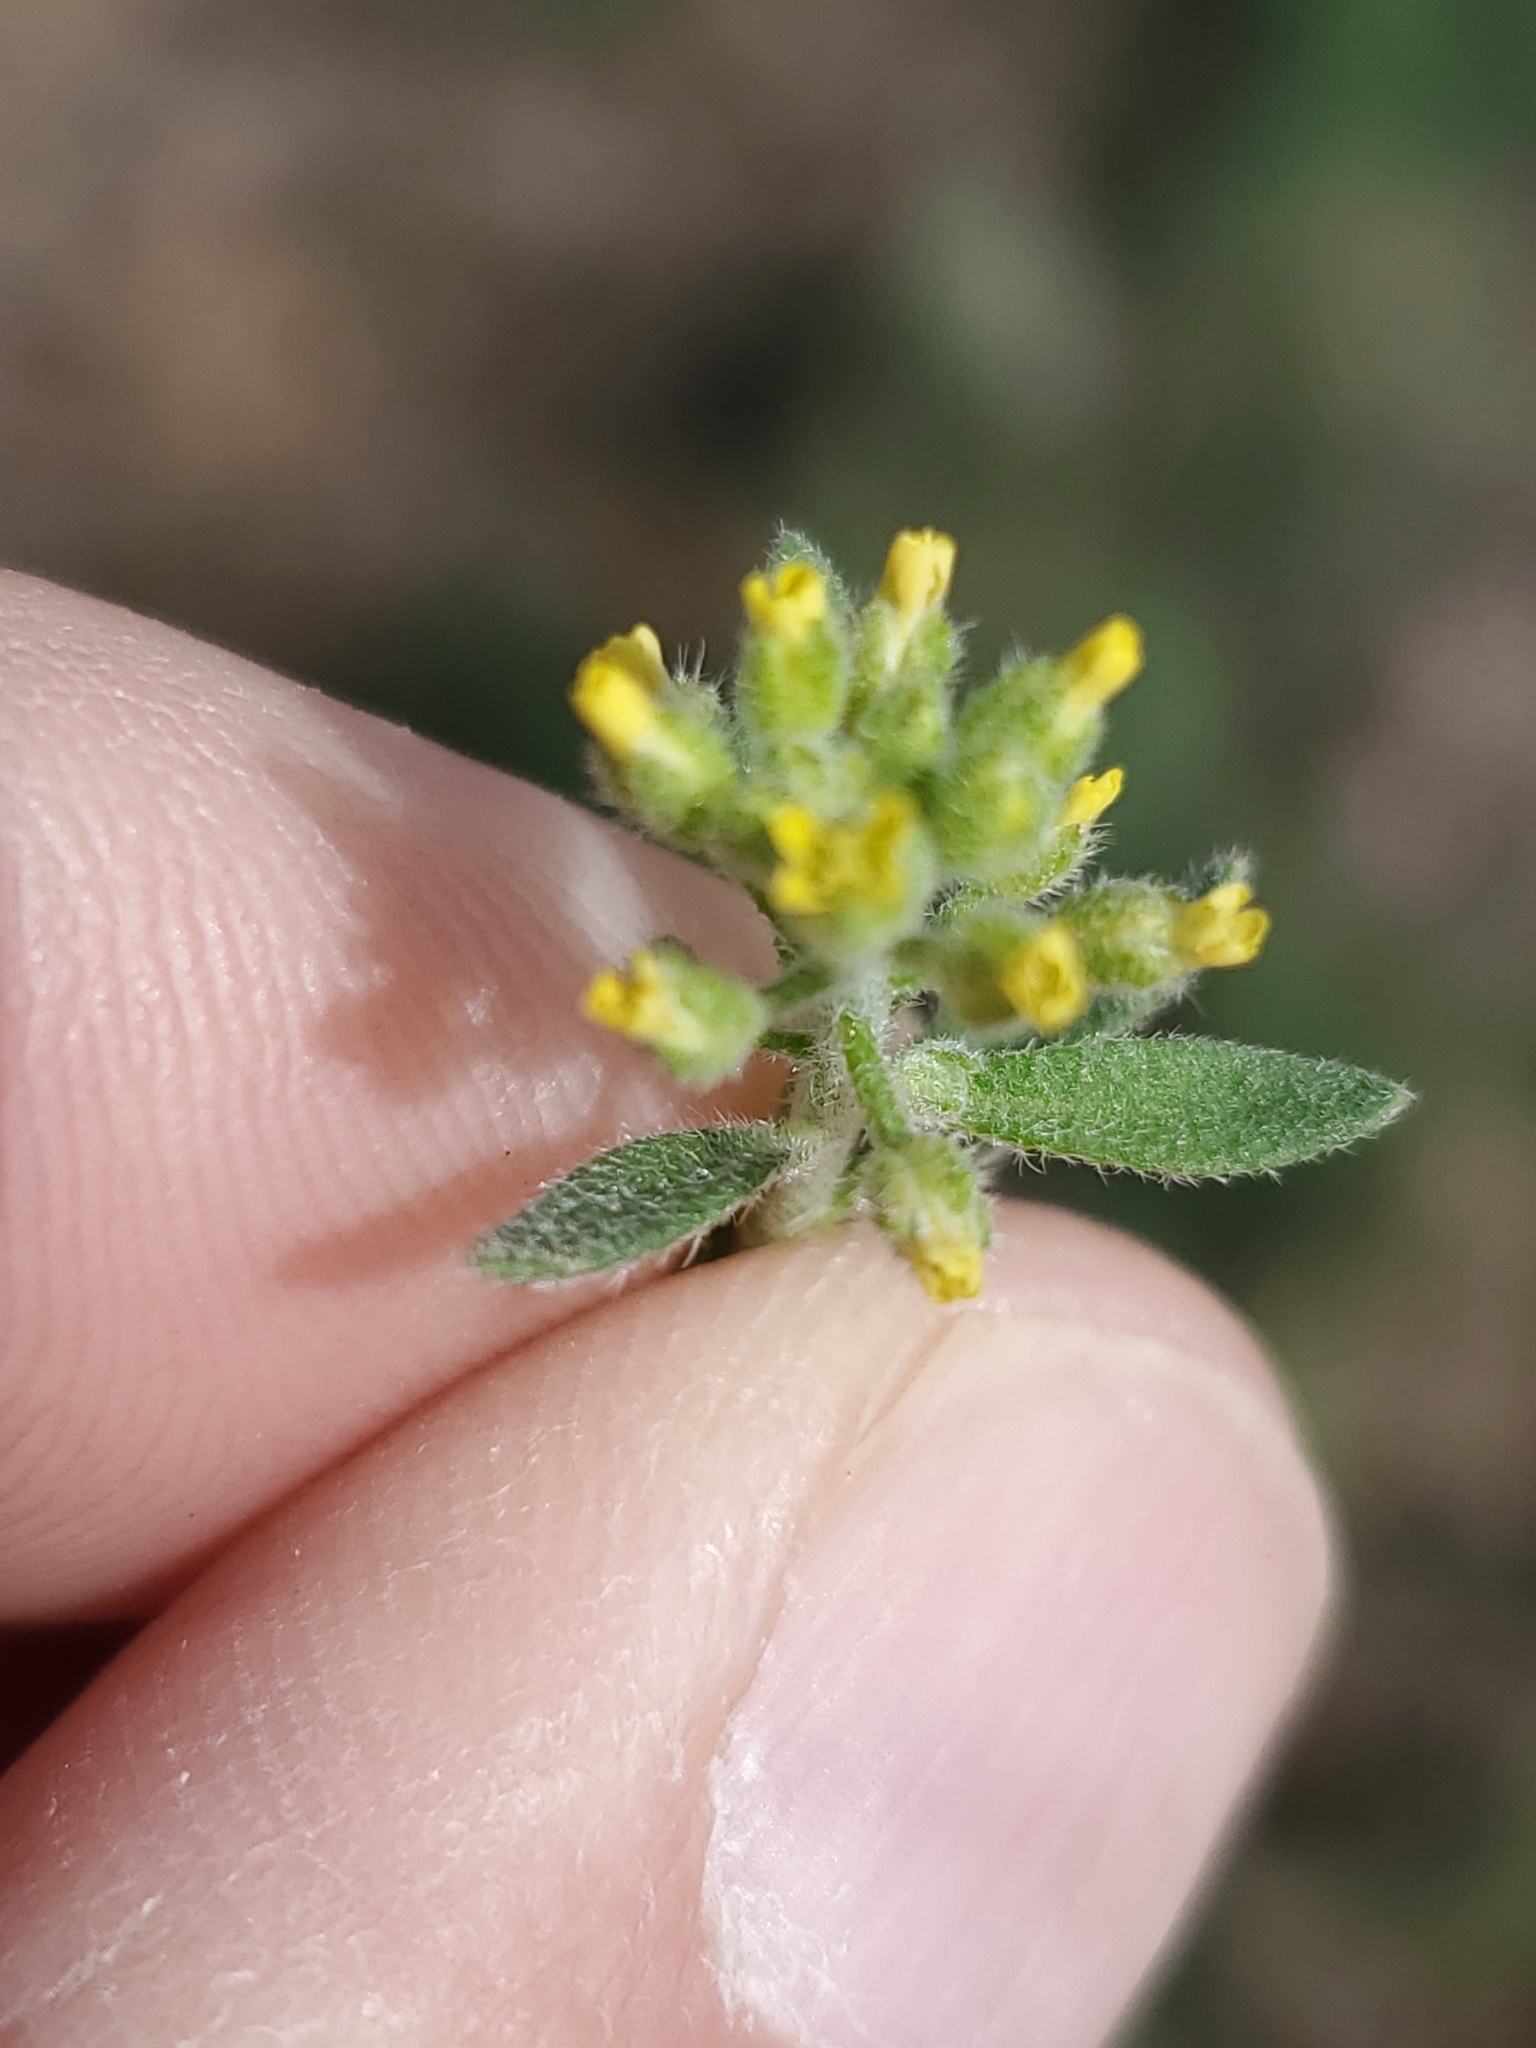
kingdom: Plantae
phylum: Tracheophyta
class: Magnoliopsida
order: Brassicales
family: Brassicaceae
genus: Alyssum
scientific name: Alyssum simplex
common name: Alyssum
